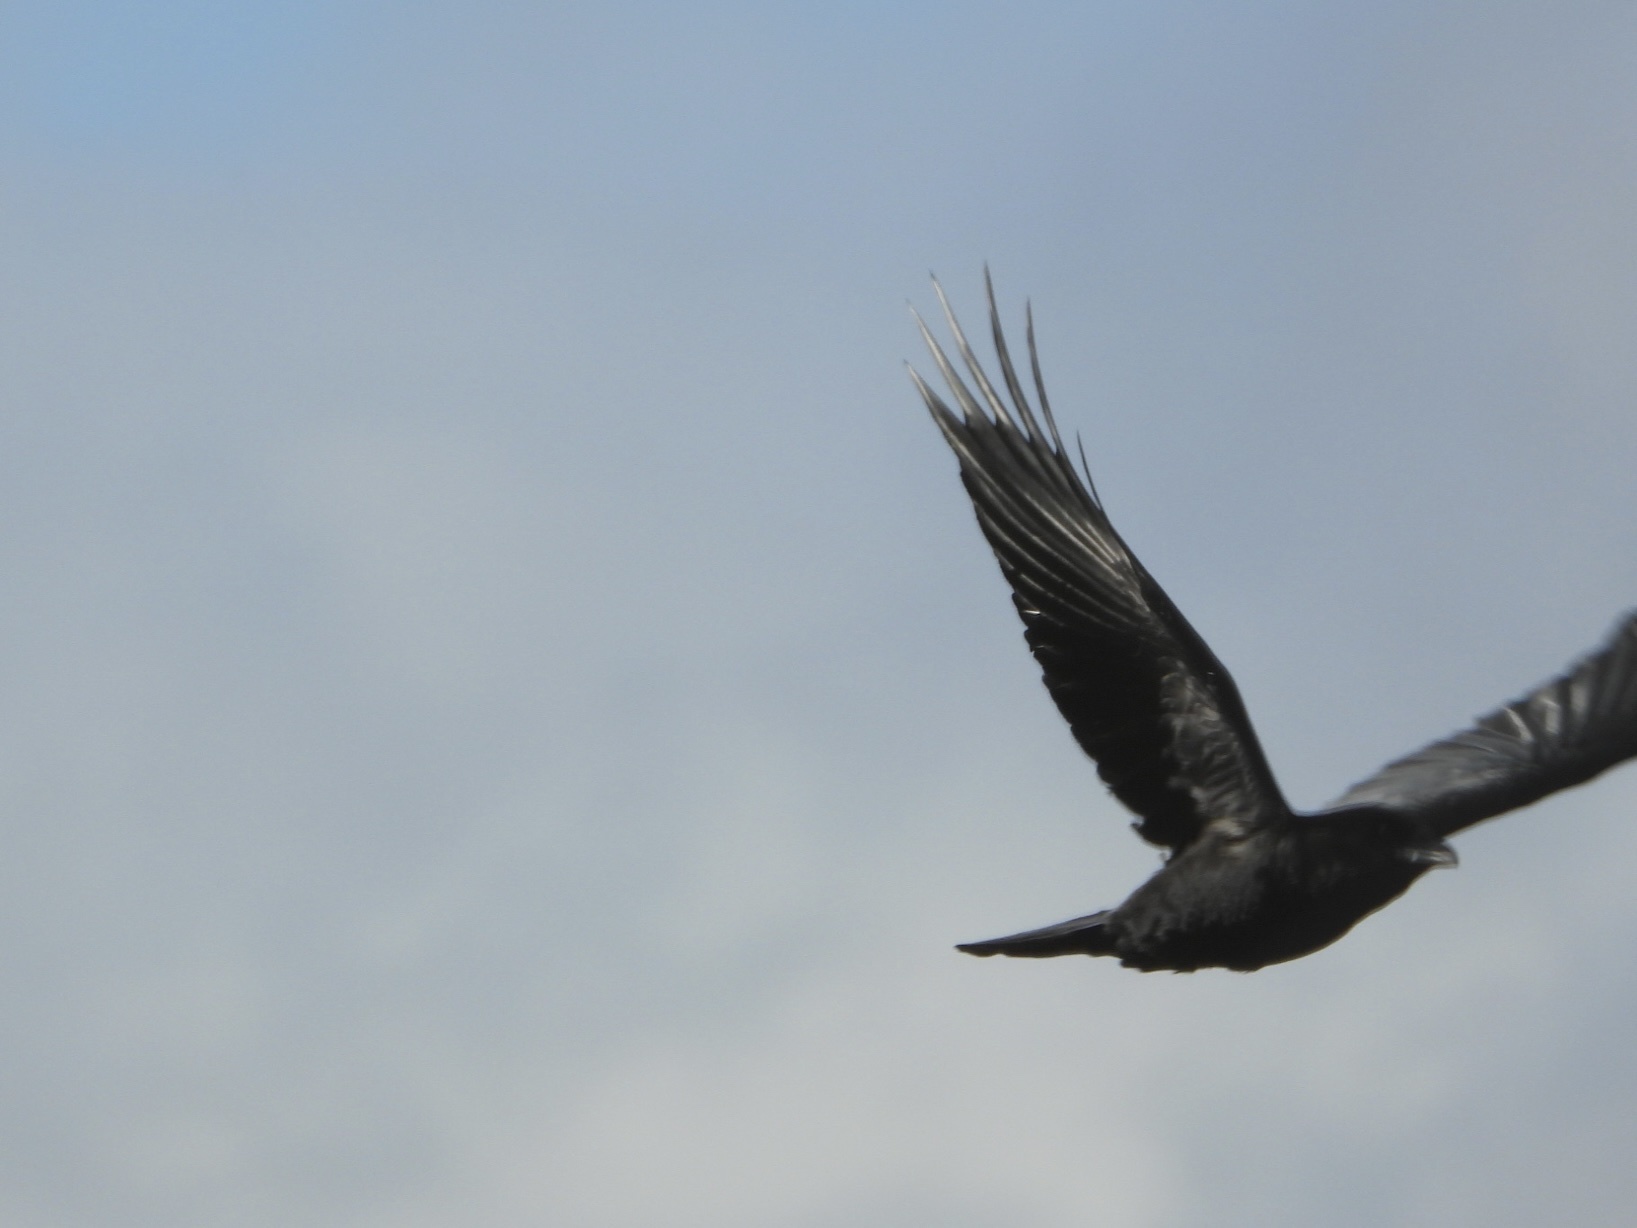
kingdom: Animalia
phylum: Chordata
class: Aves
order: Passeriformes
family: Corvidae
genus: Corvus
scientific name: Corvus brachyrhynchos
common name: American crow
